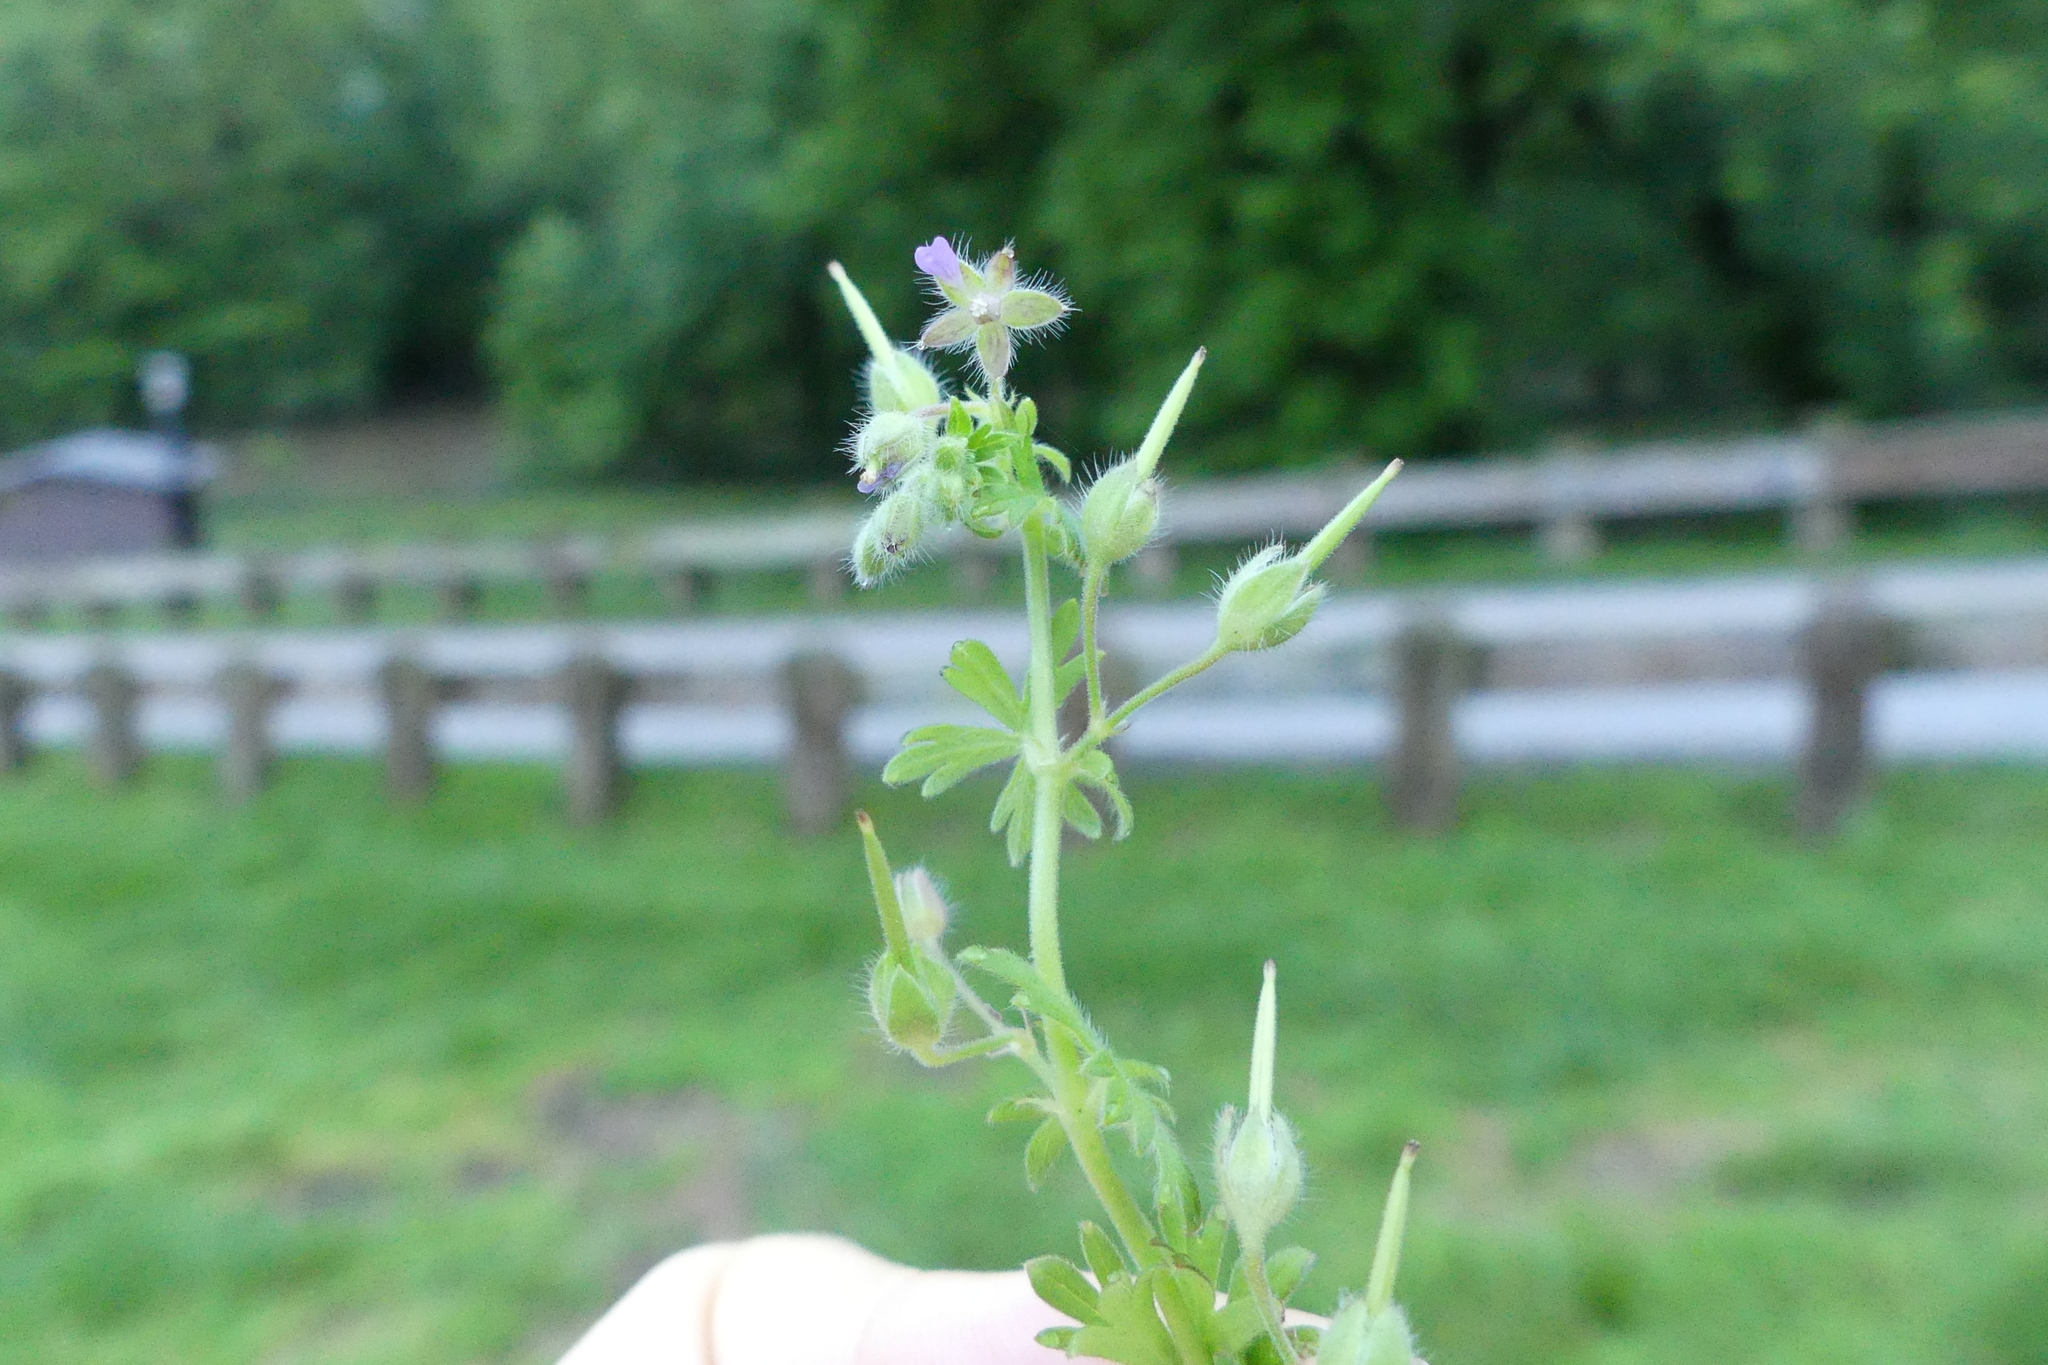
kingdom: Plantae
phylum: Tracheophyta
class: Magnoliopsida
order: Geraniales
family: Geraniaceae
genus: Geranium
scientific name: Geranium carolinianum
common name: Carolina crane's-bill
